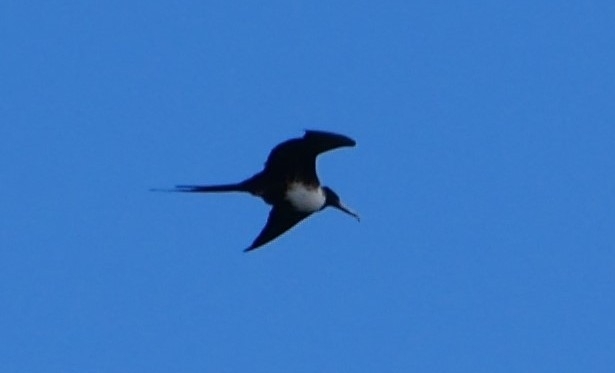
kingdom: Animalia
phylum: Chordata
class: Aves
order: Suliformes
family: Fregatidae
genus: Fregata
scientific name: Fregata magnificens
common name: Magnificent frigatebird
